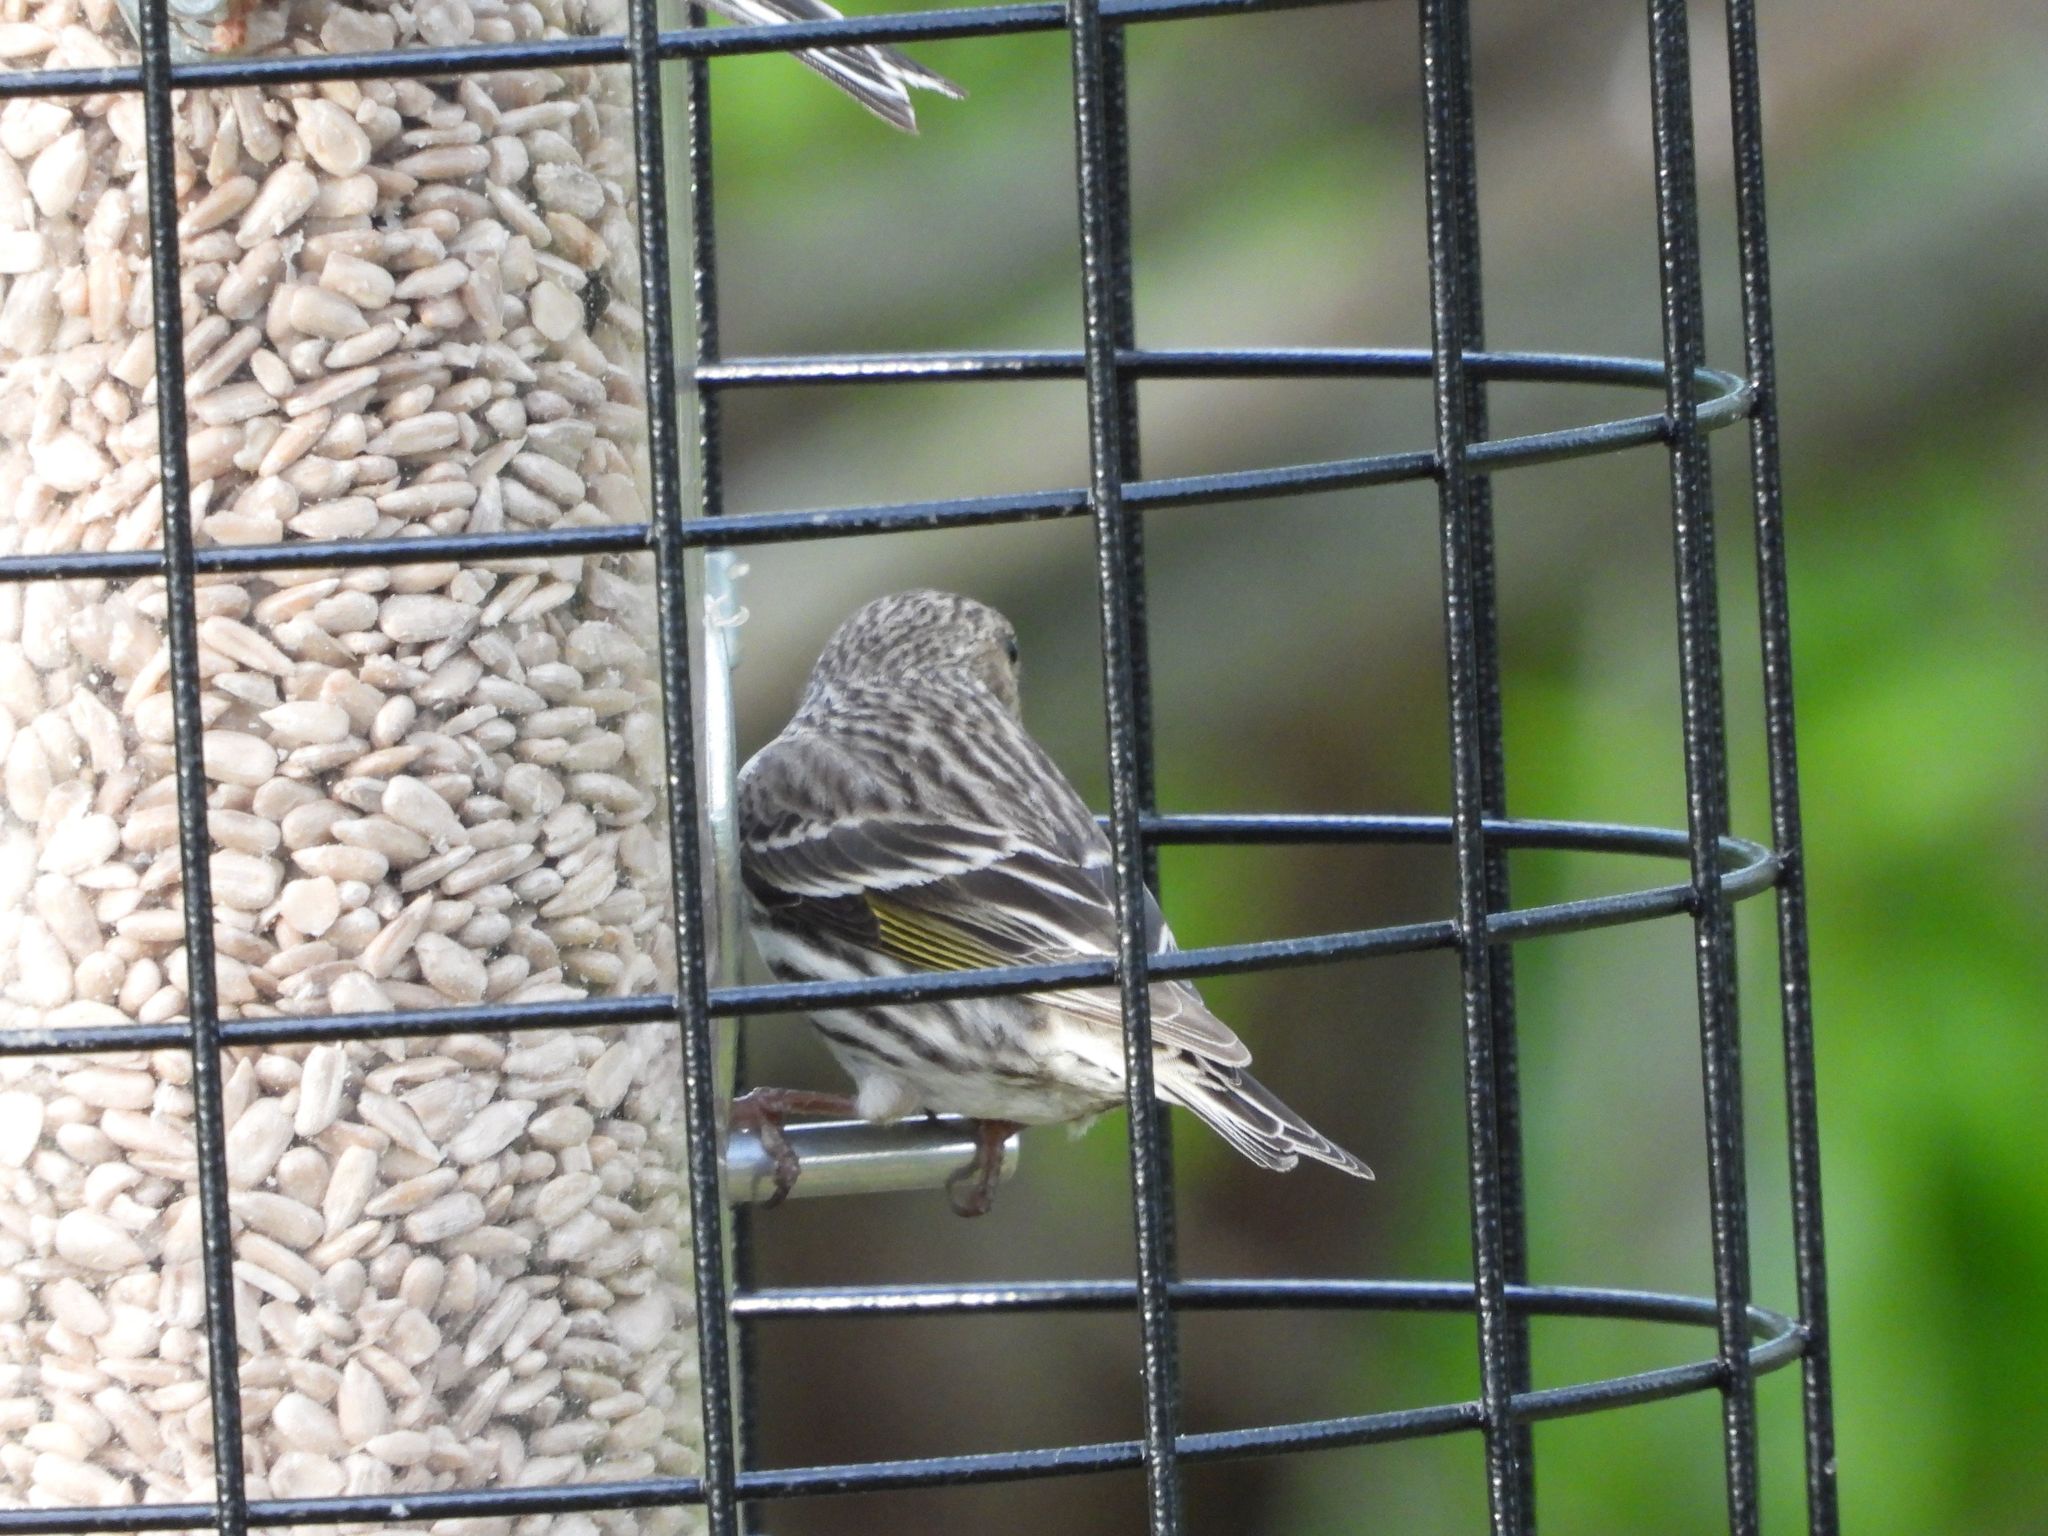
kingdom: Animalia
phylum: Chordata
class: Aves
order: Passeriformes
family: Fringillidae
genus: Spinus
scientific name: Spinus pinus
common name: Pine siskin
